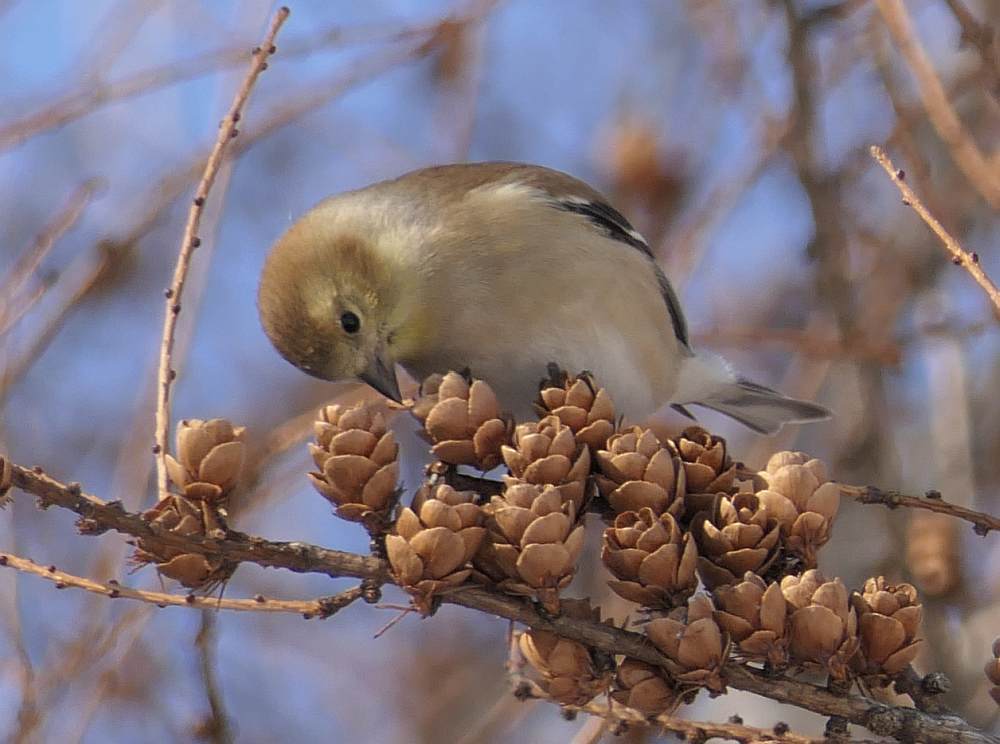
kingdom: Animalia
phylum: Chordata
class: Aves
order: Passeriformes
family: Fringillidae
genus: Spinus
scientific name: Spinus tristis
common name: American goldfinch
